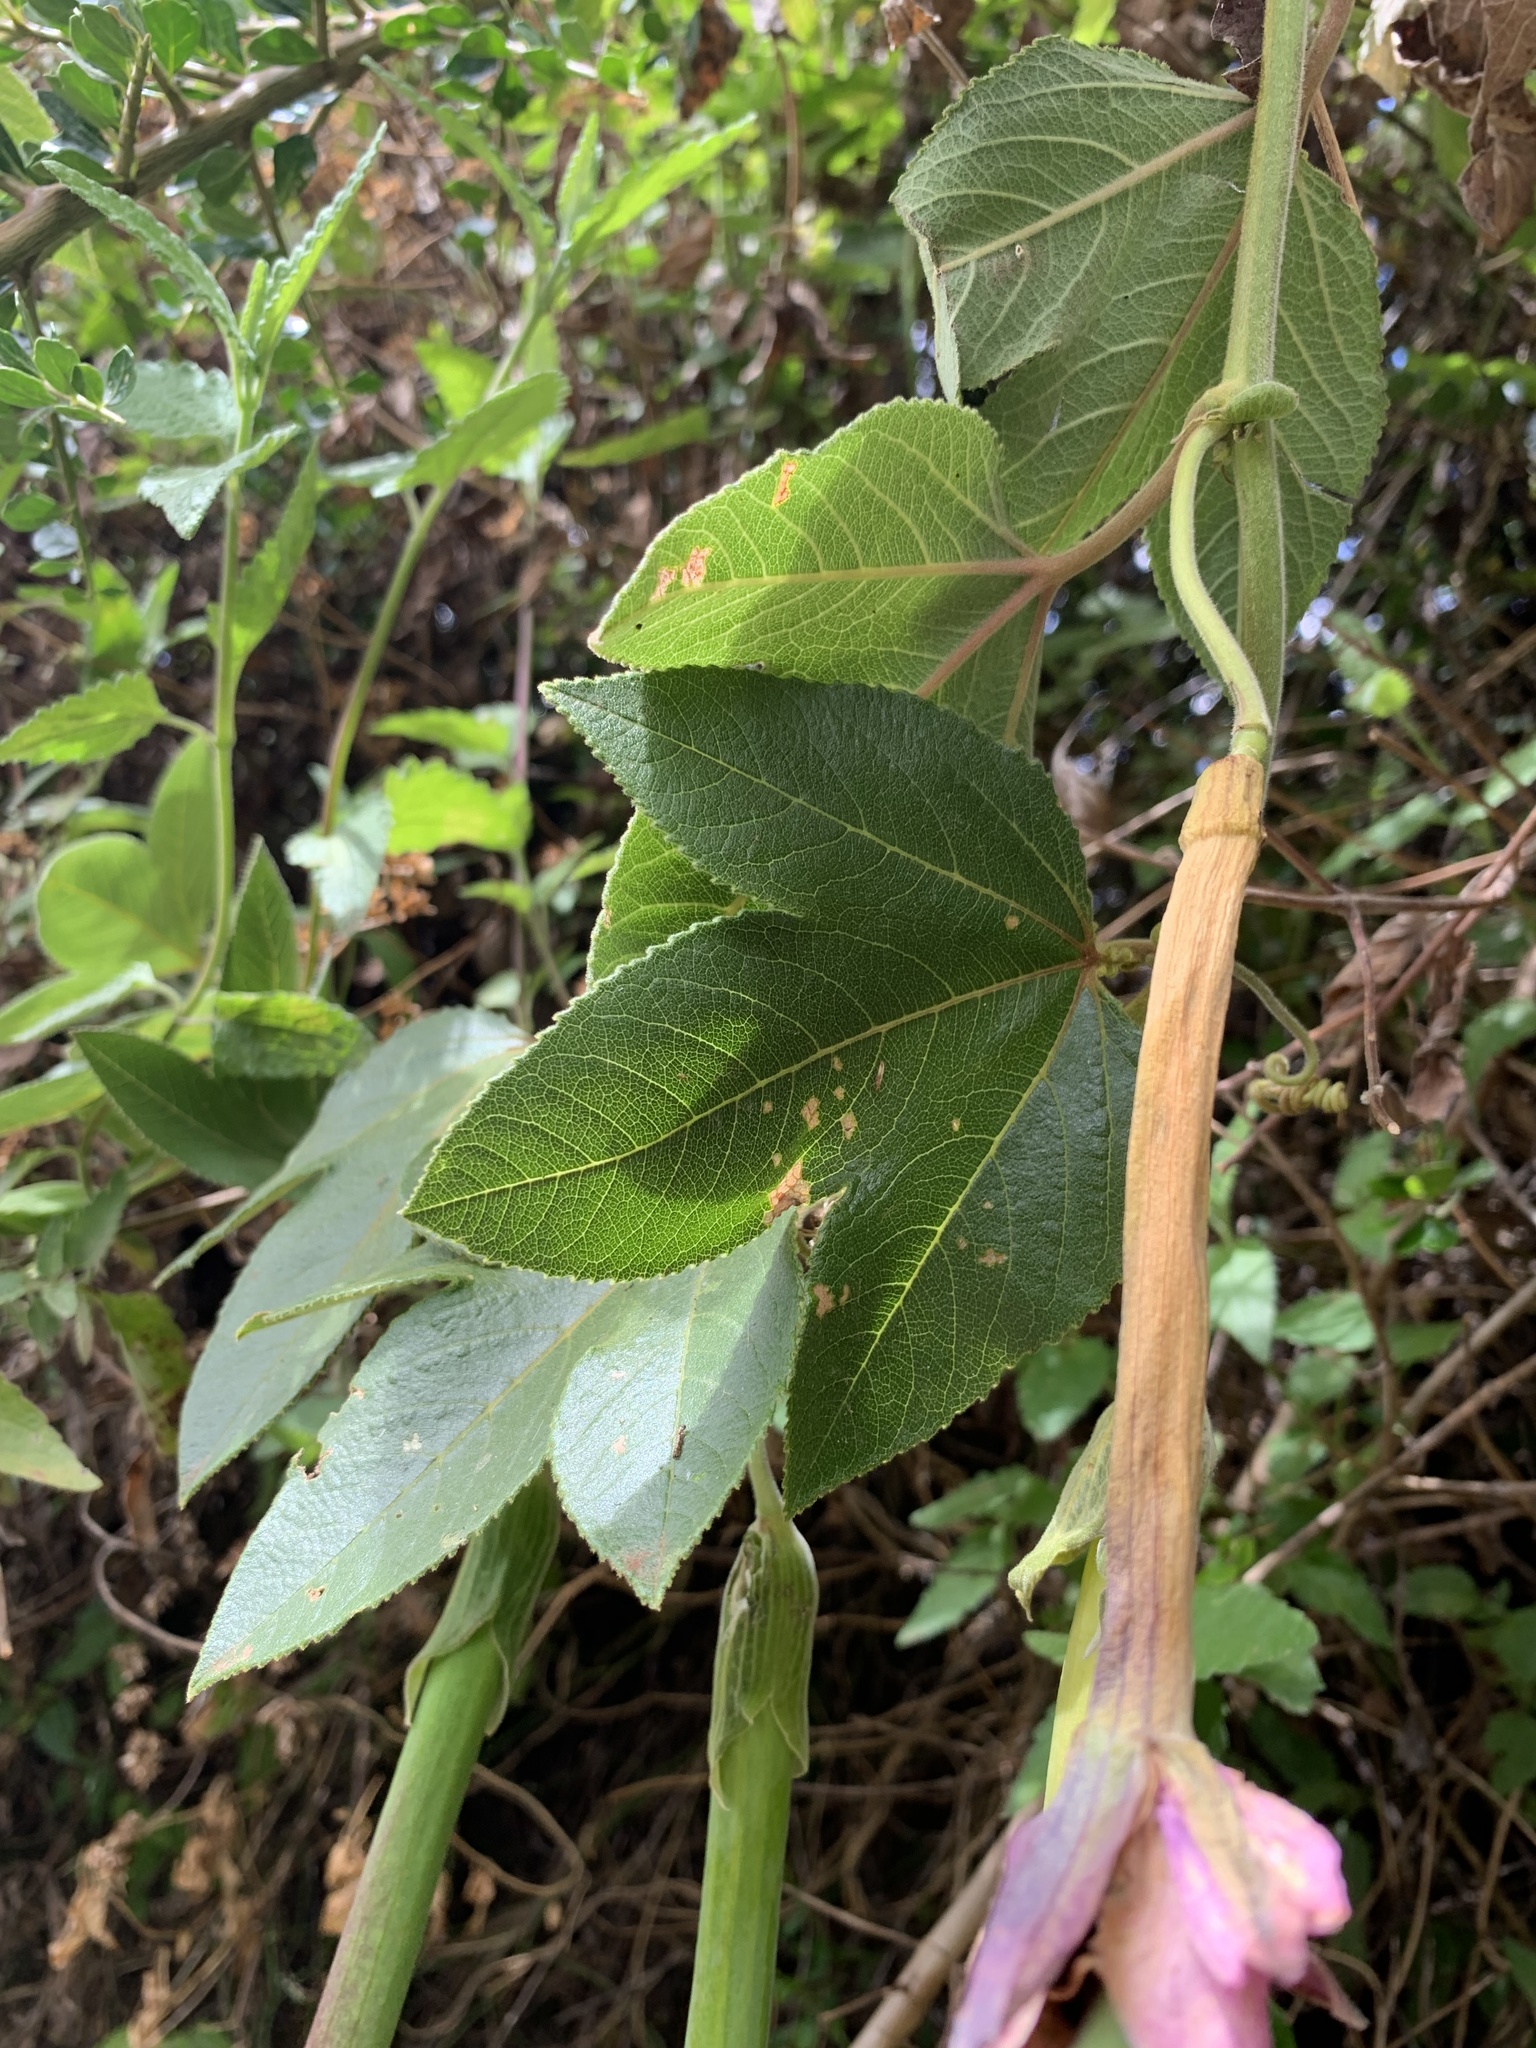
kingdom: Plantae
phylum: Tracheophyta
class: Magnoliopsida
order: Malpighiales
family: Passifloraceae
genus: Passiflora
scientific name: Passiflora tripartita
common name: Banana poka
